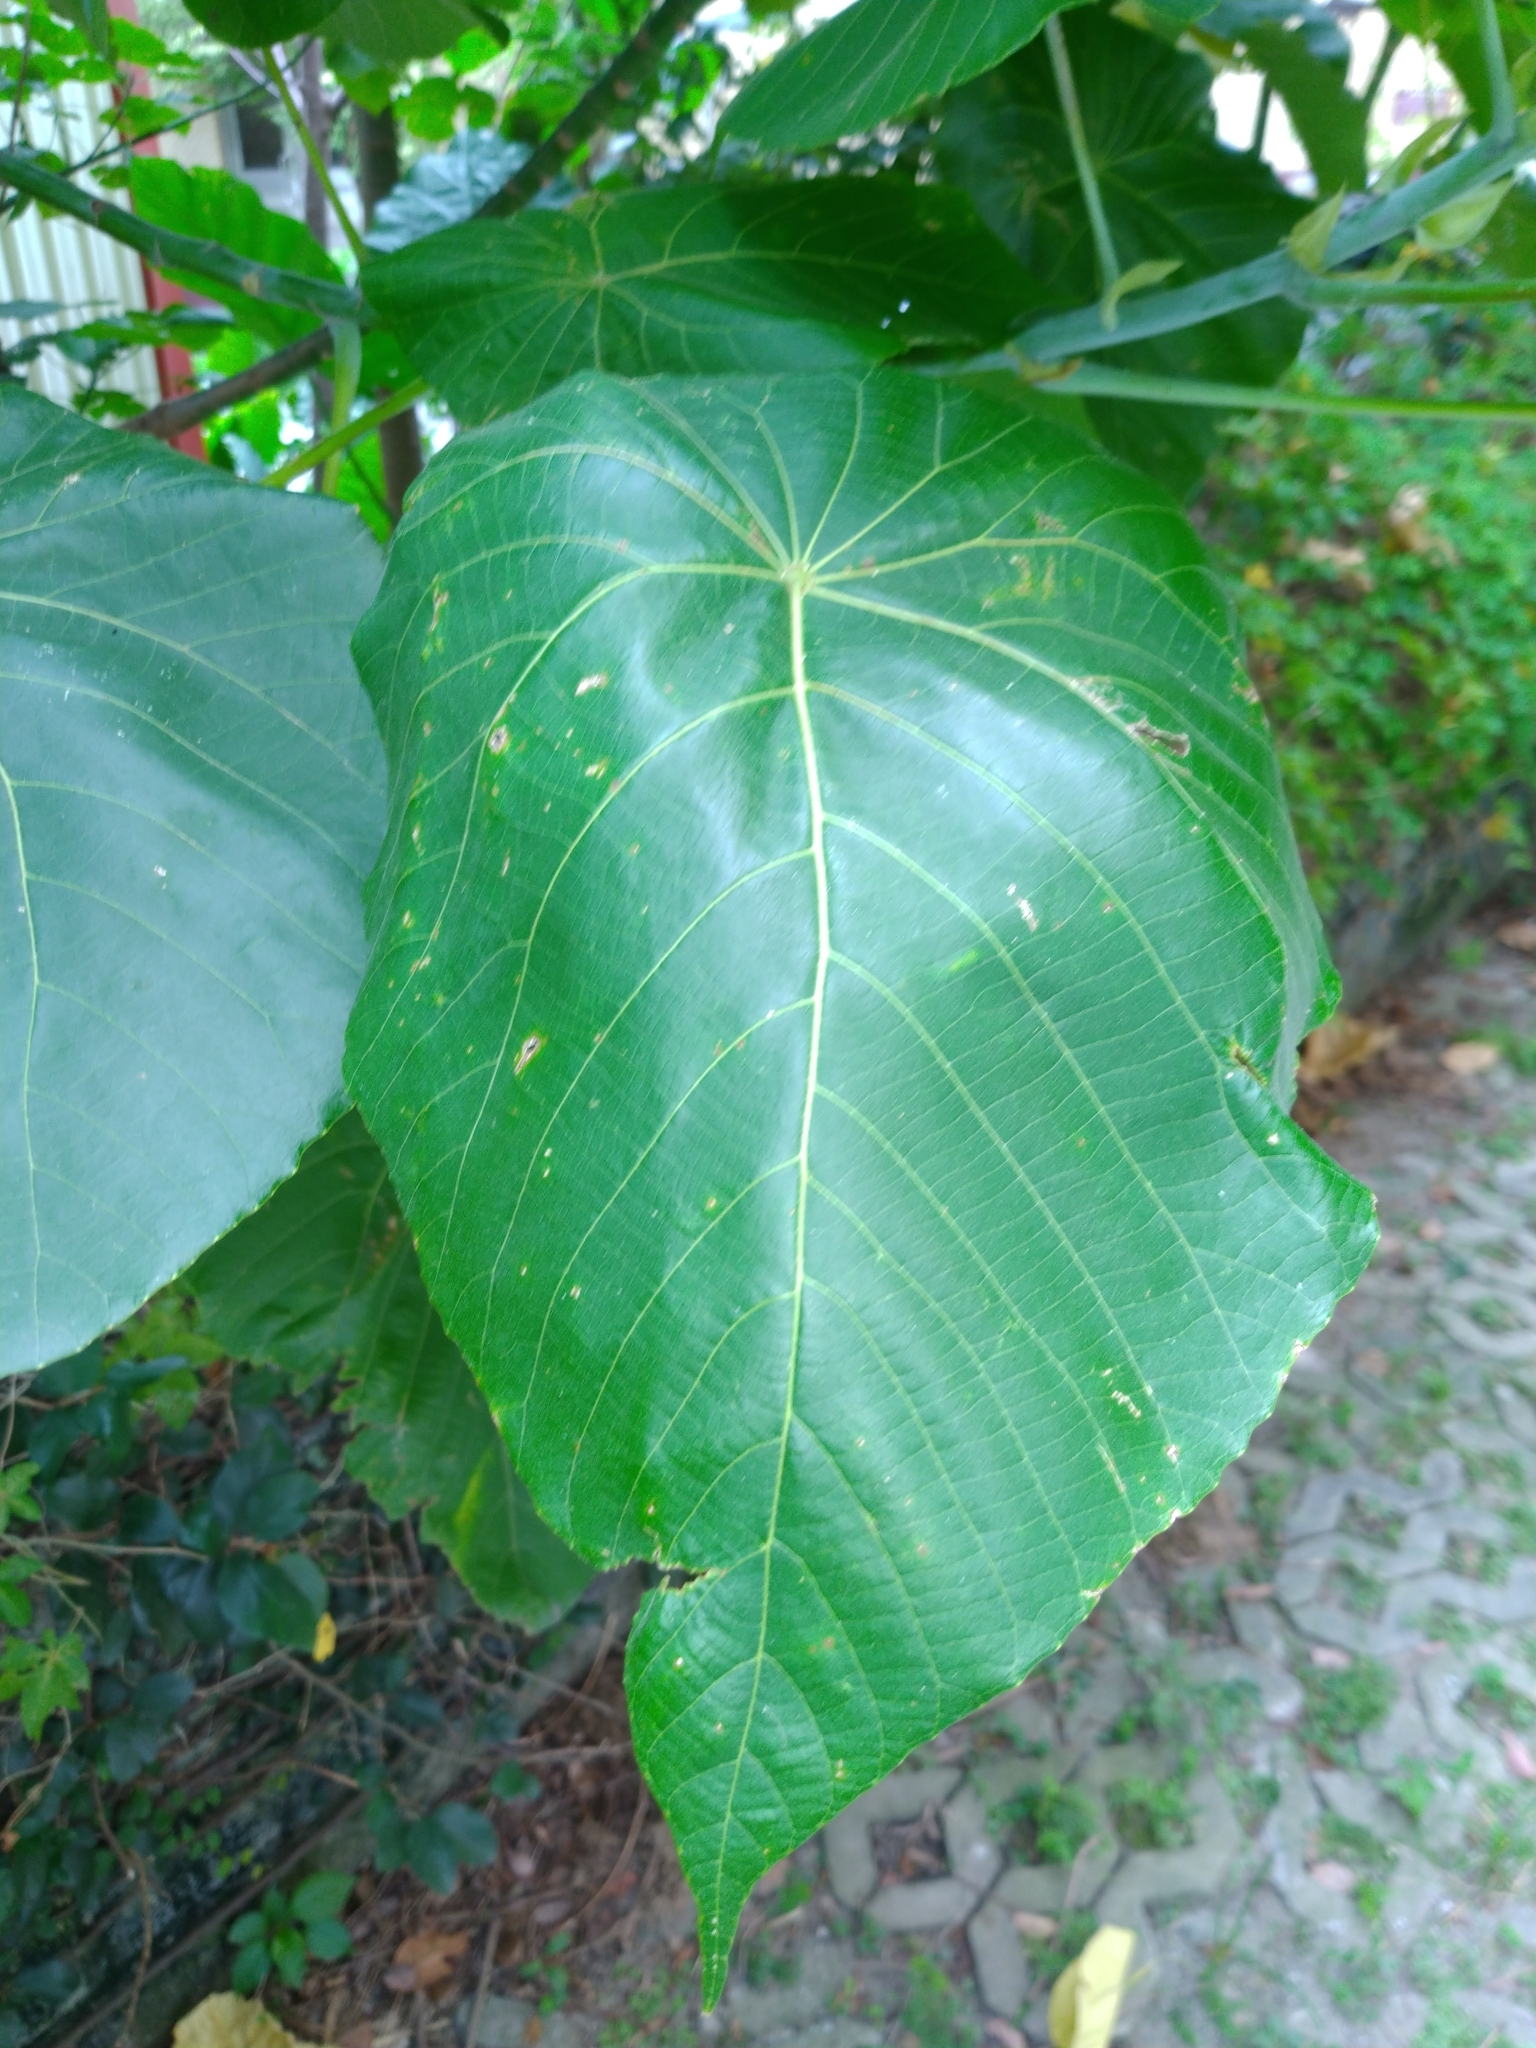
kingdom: Plantae
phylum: Tracheophyta
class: Magnoliopsida
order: Malpighiales
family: Euphorbiaceae
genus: Macaranga
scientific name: Macaranga tanarius
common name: Parasol leaf tree
